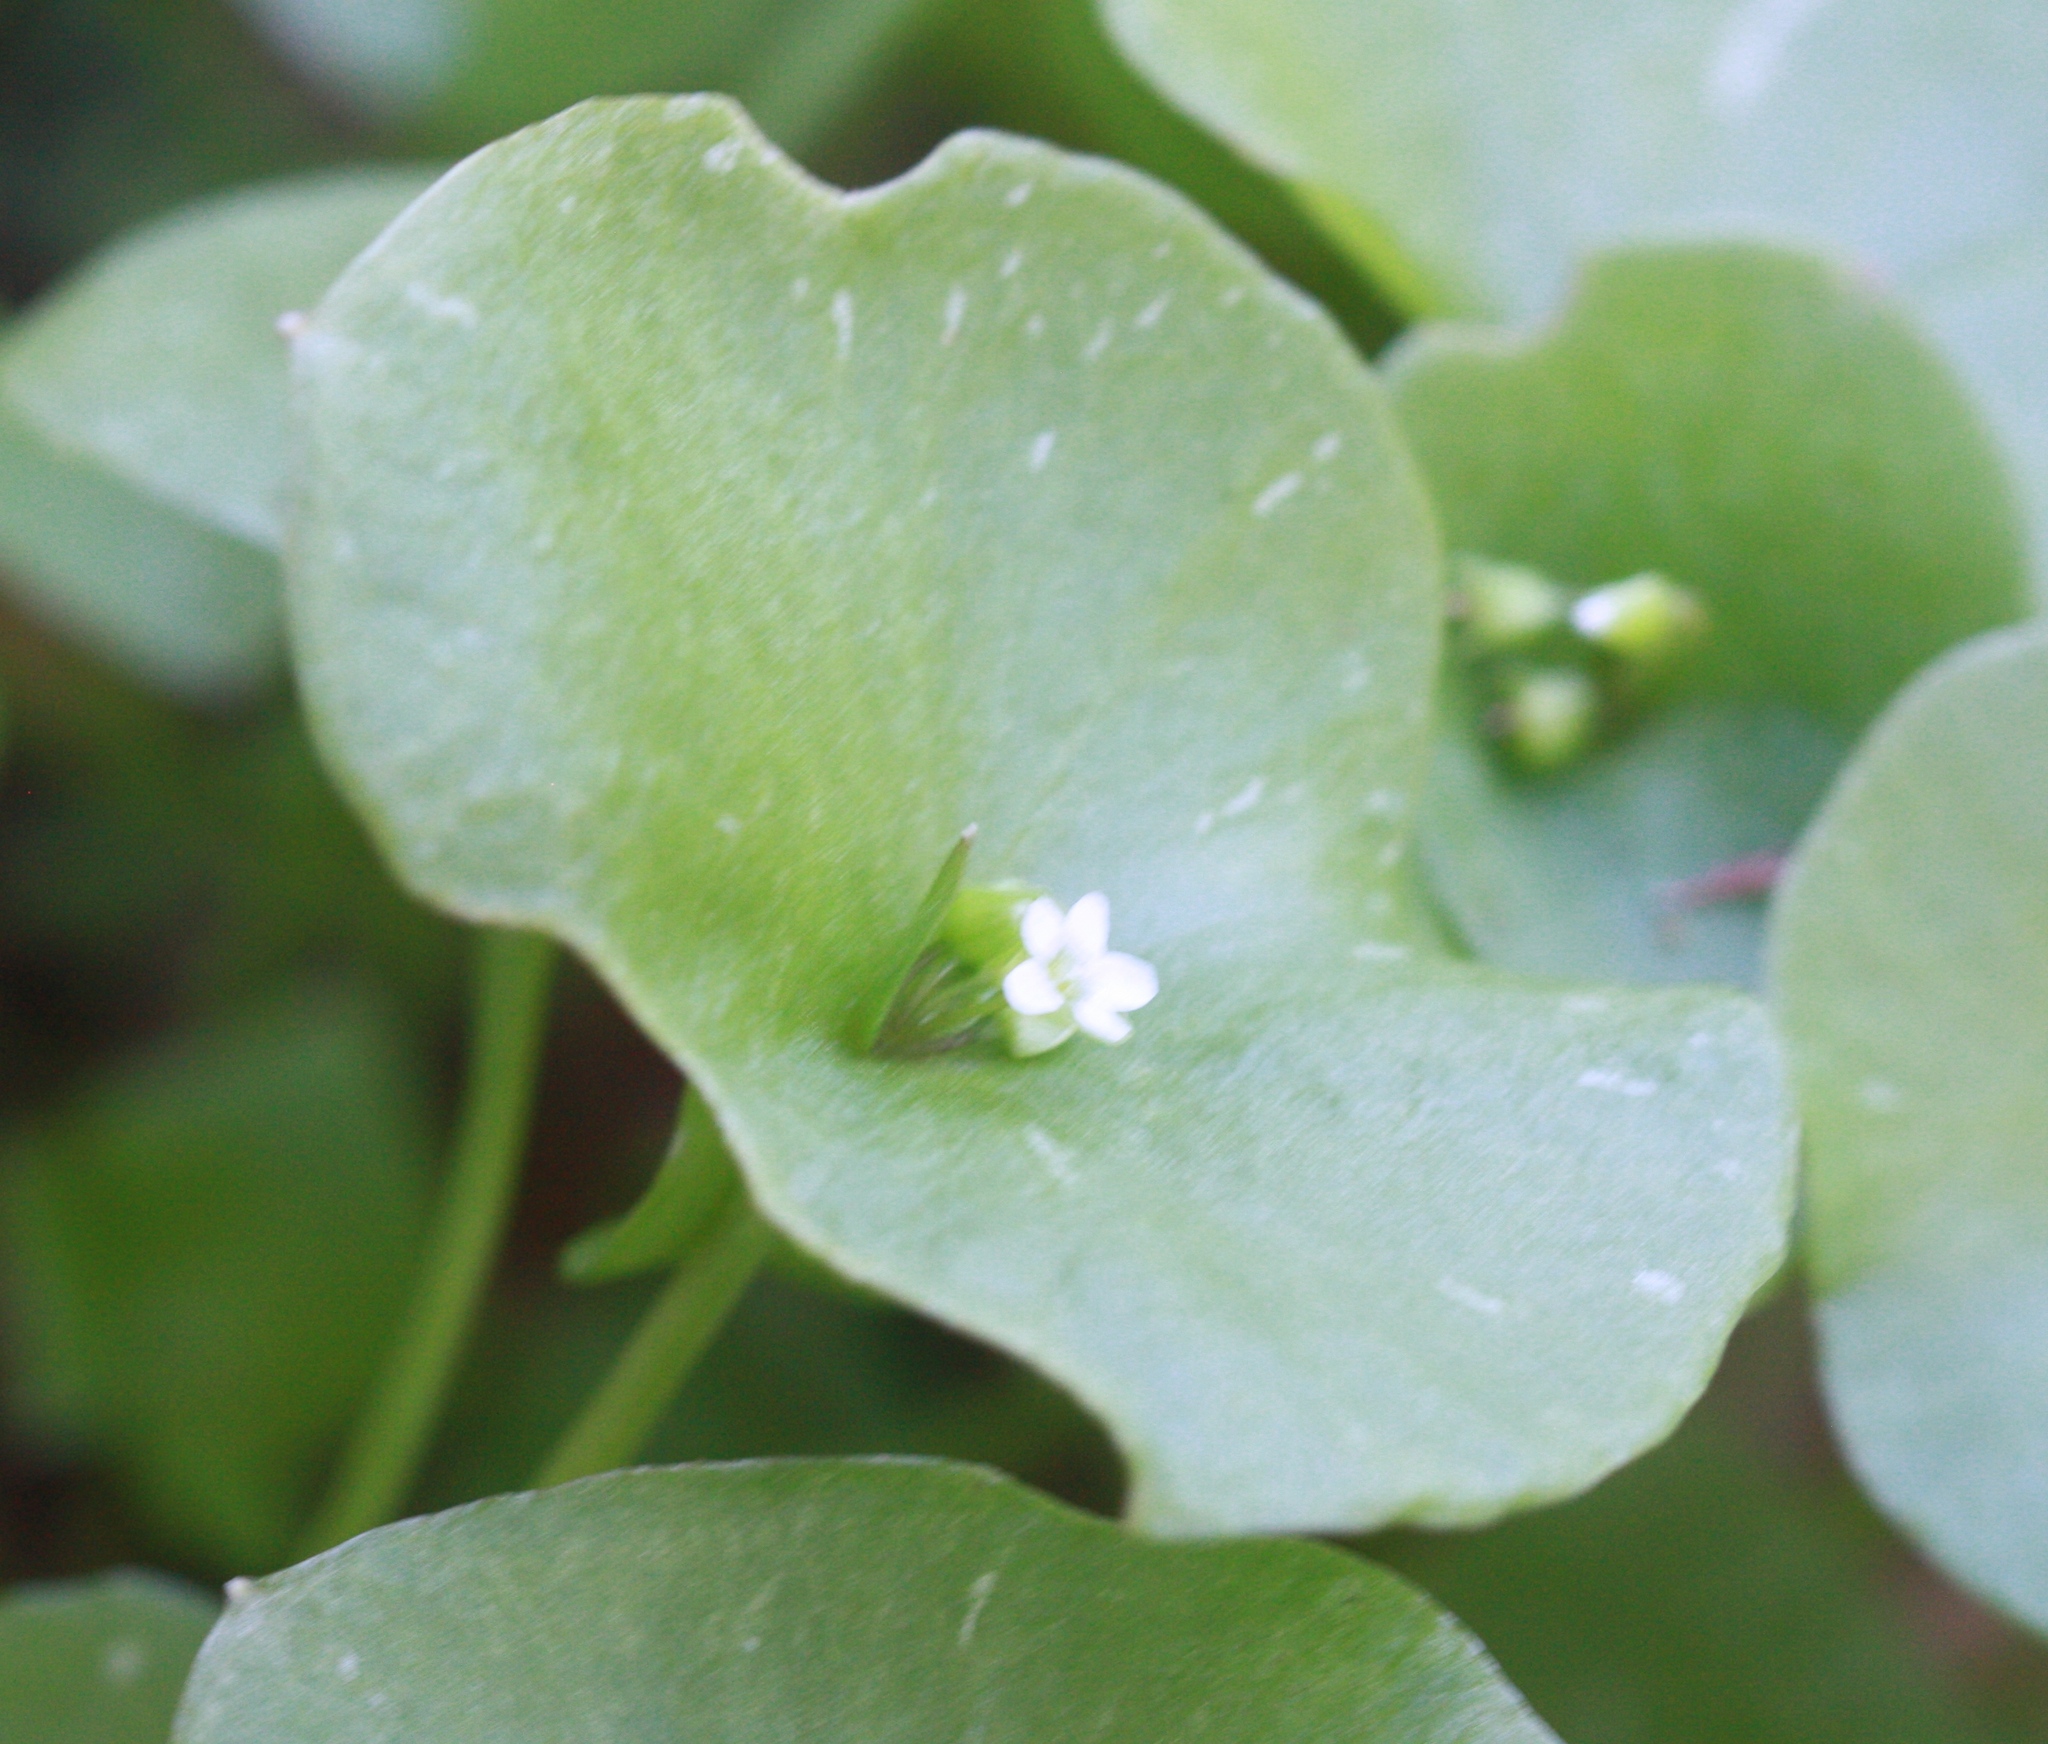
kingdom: Plantae
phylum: Tracheophyta
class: Magnoliopsida
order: Caryophyllales
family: Montiaceae
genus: Claytonia
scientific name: Claytonia perfoliata
